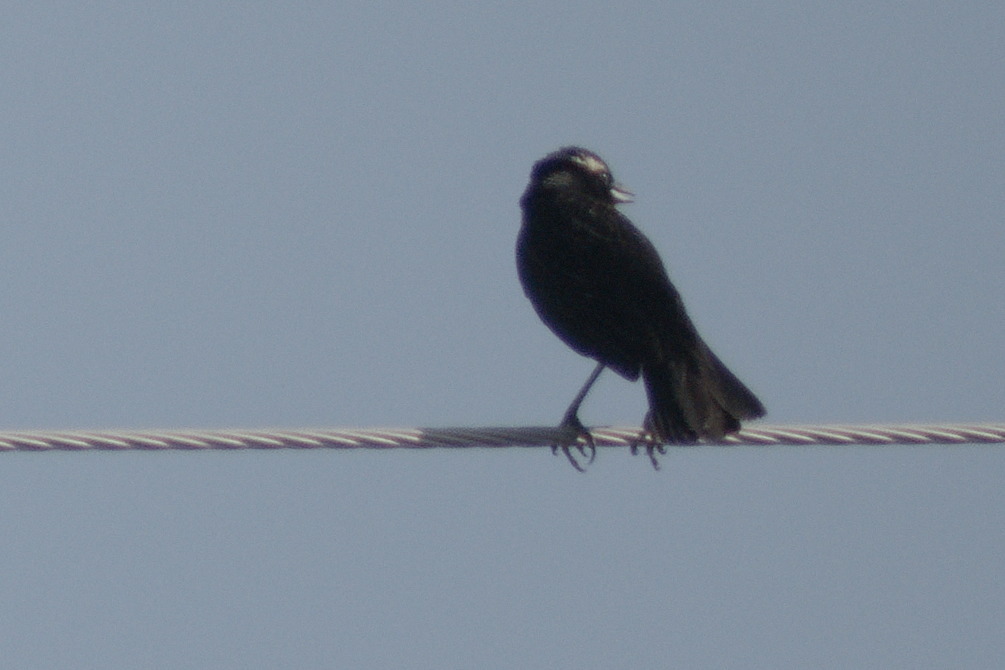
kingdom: Animalia
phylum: Chordata
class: Aves
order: Passeriformes
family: Icteridae
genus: Sturnella
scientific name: Sturnella superciliaris
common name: White-browed blackbird
